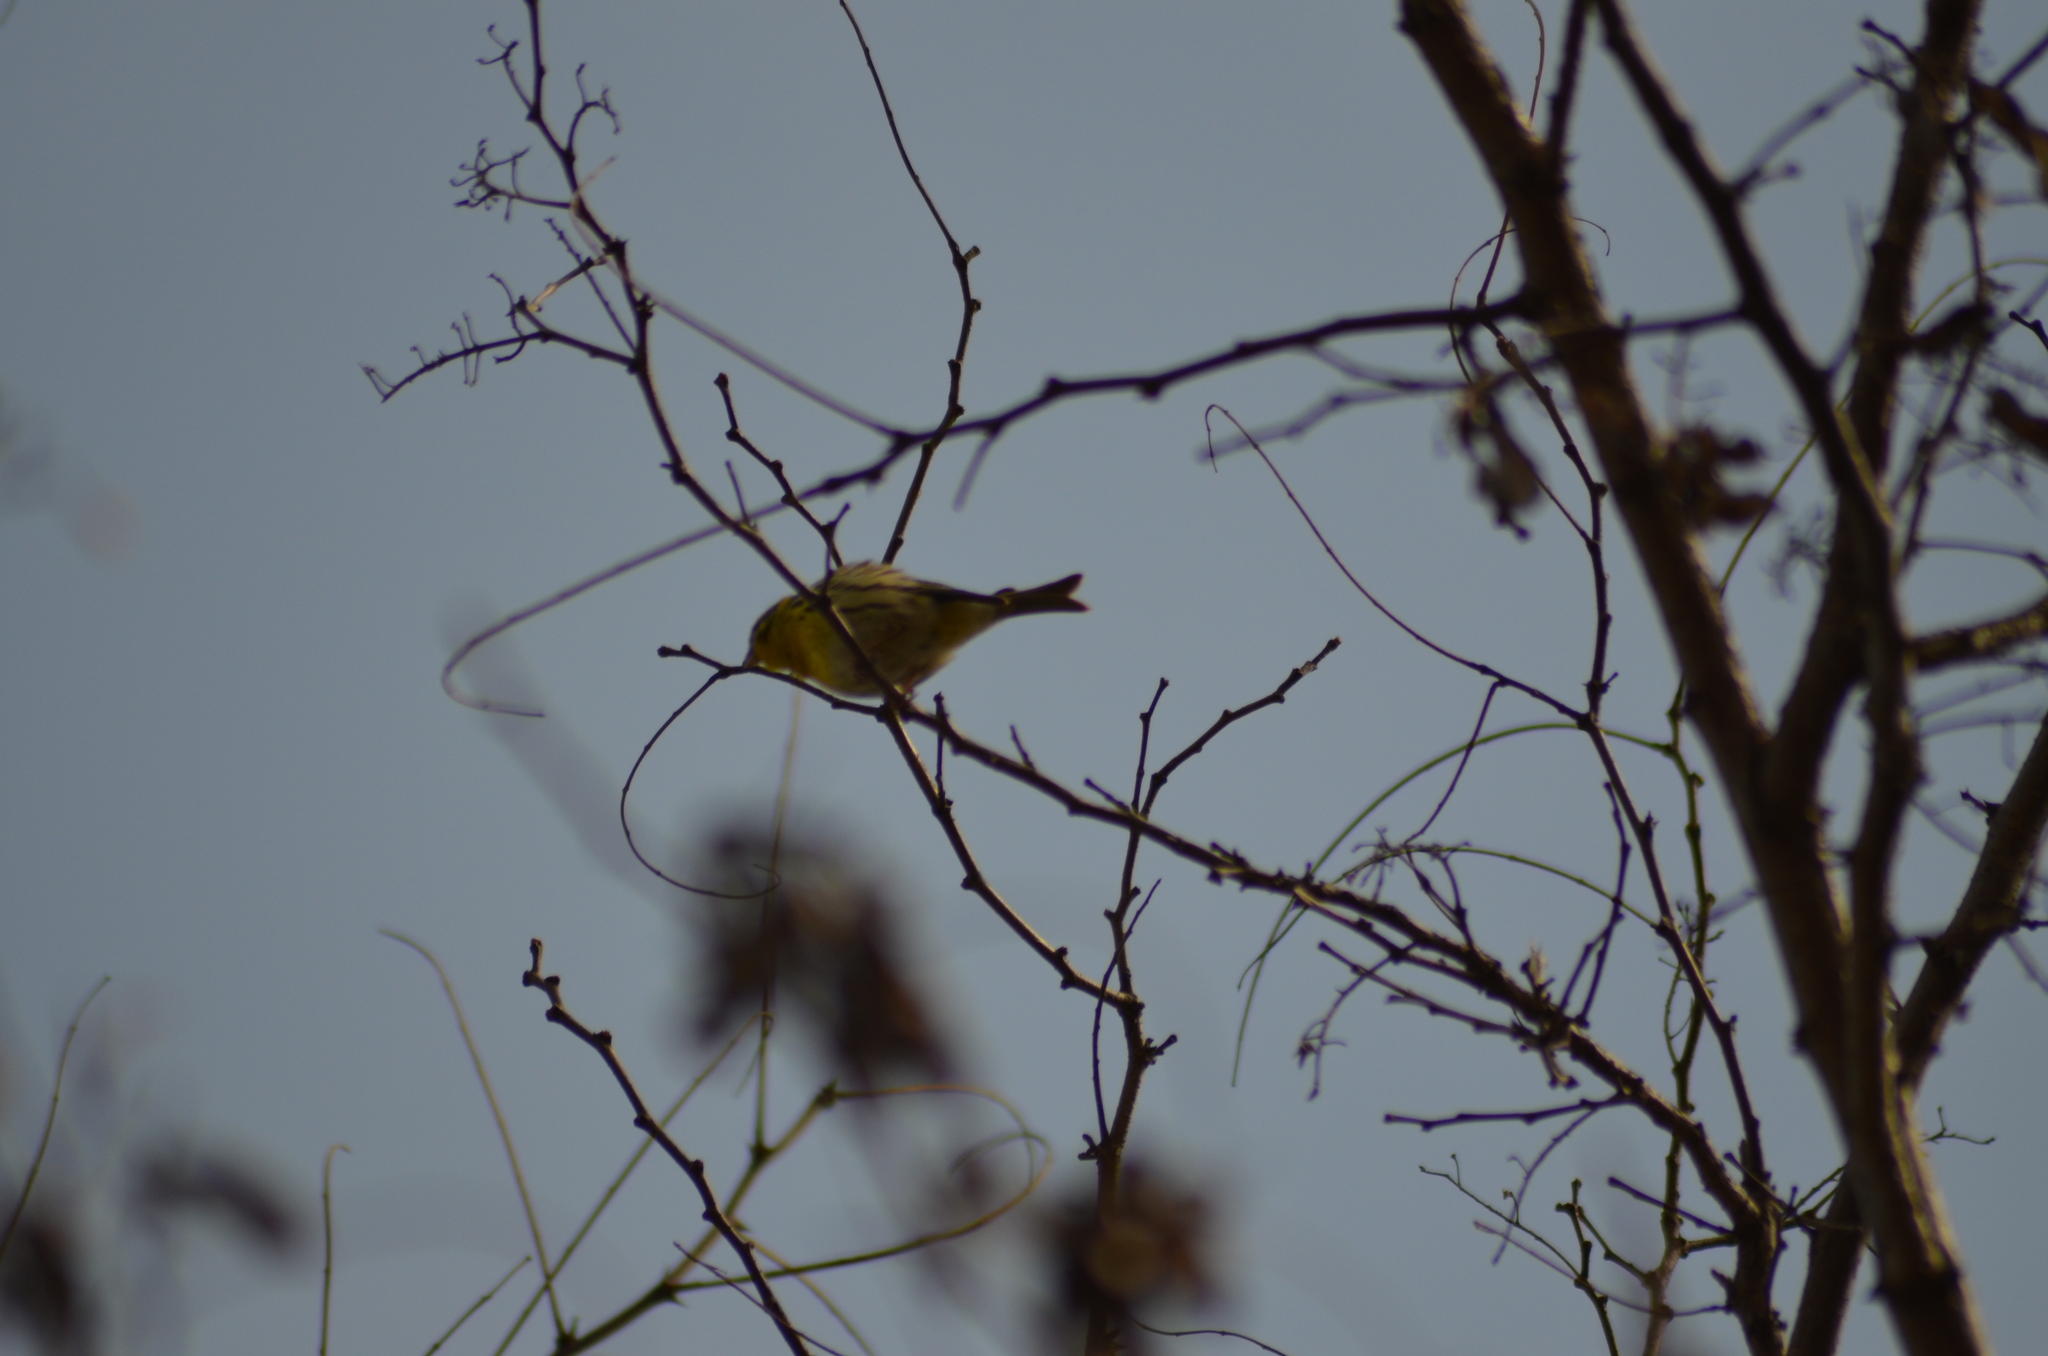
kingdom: Animalia
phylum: Chordata
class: Aves
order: Passeriformes
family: Fringillidae
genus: Serinus
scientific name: Serinus serinus
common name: European serin
